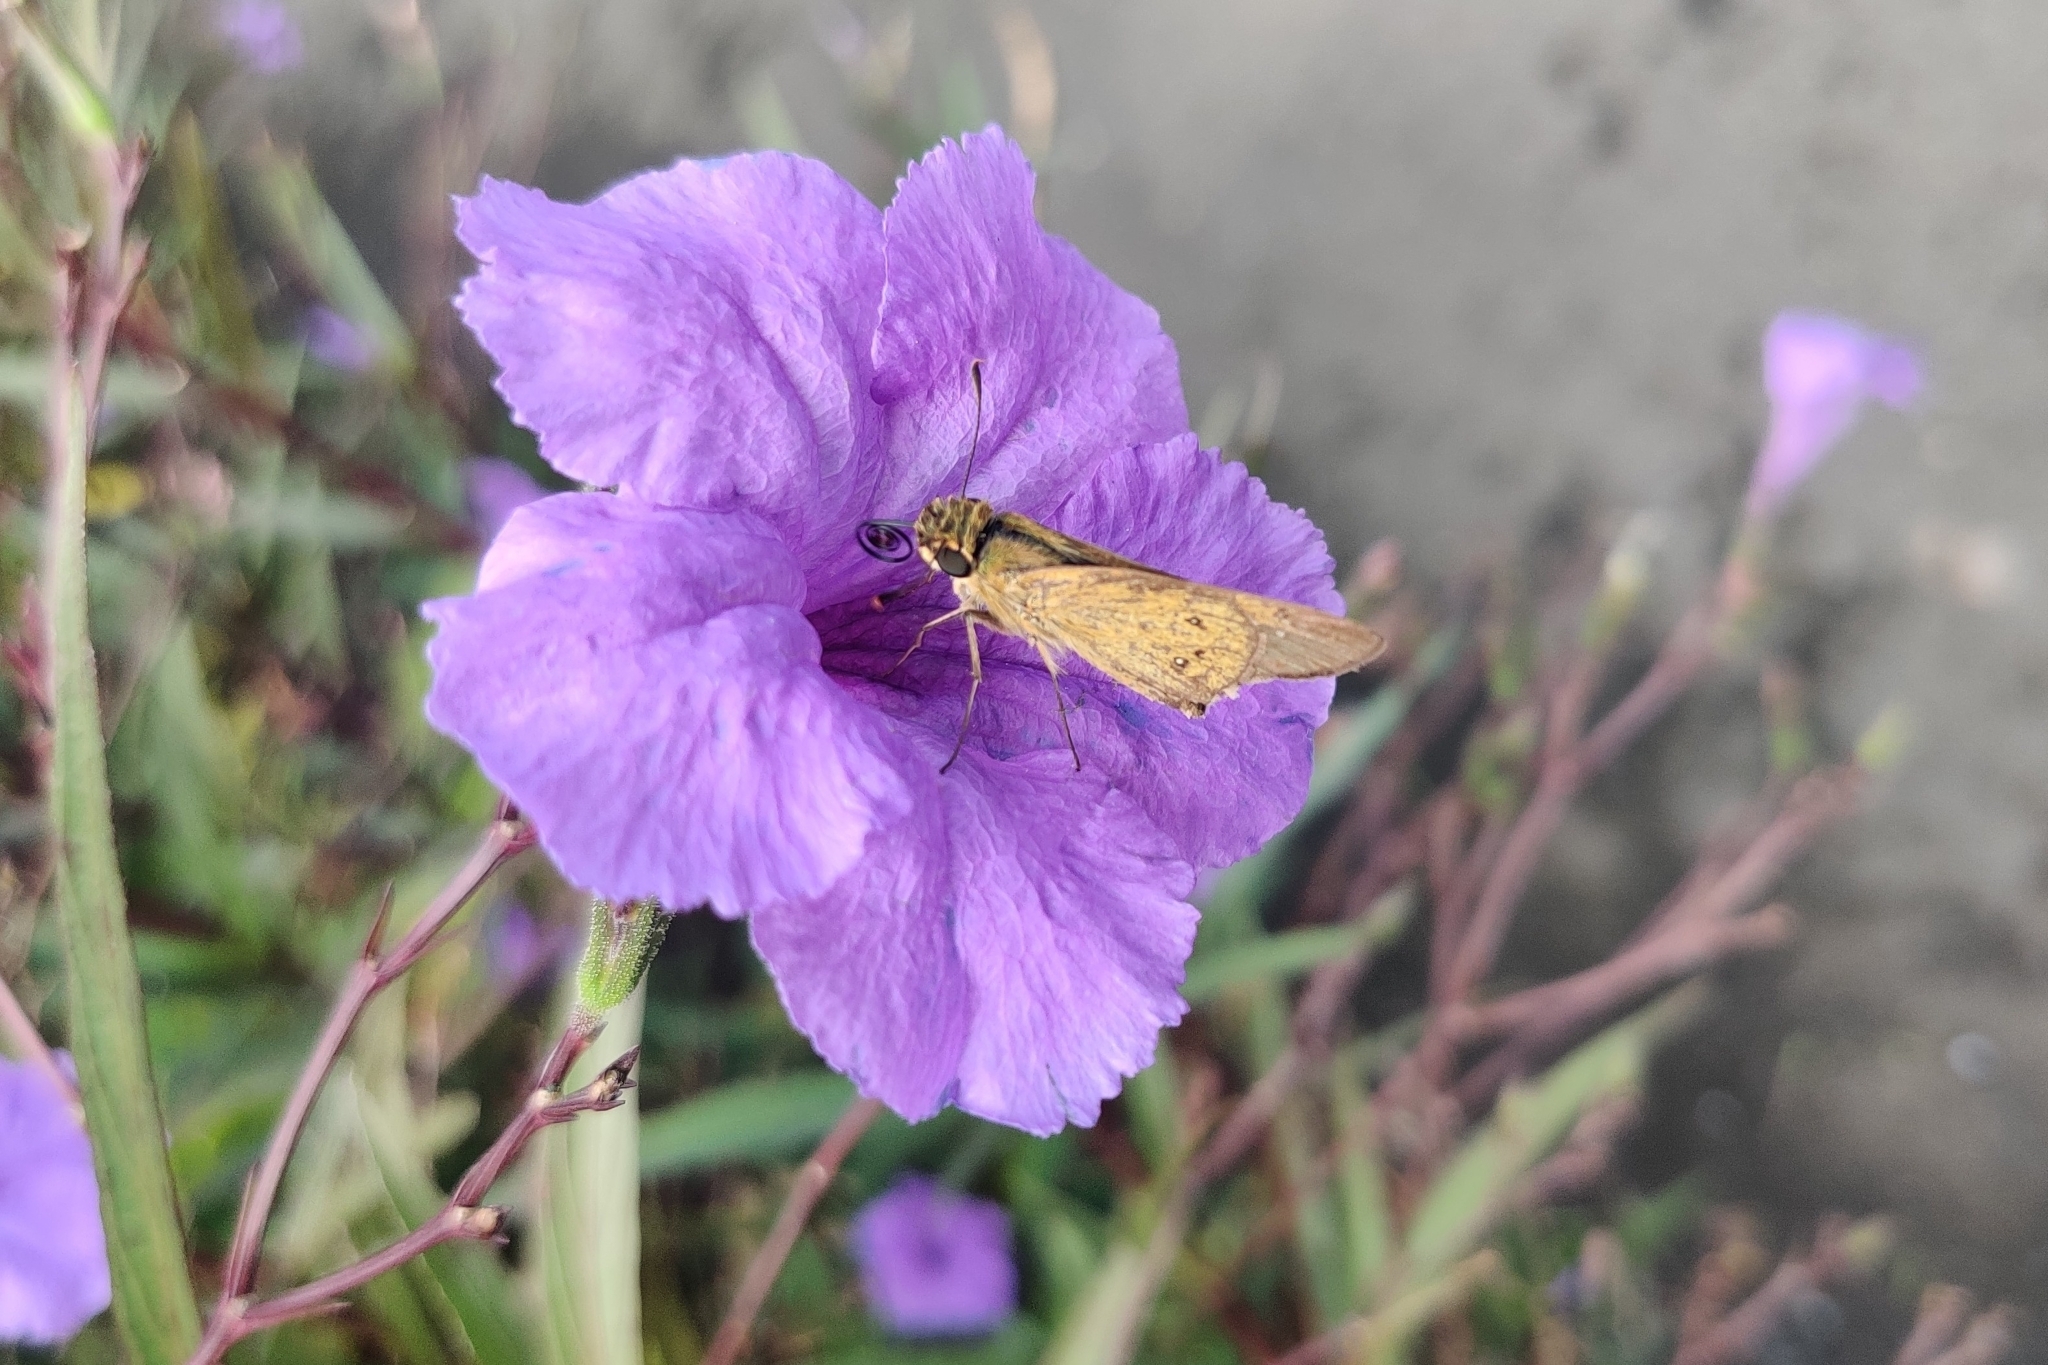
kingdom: Animalia
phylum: Arthropoda
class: Insecta
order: Lepidoptera
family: Hesperiidae
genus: Borbo
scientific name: Borbo borbonica
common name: Olive-haired swift
